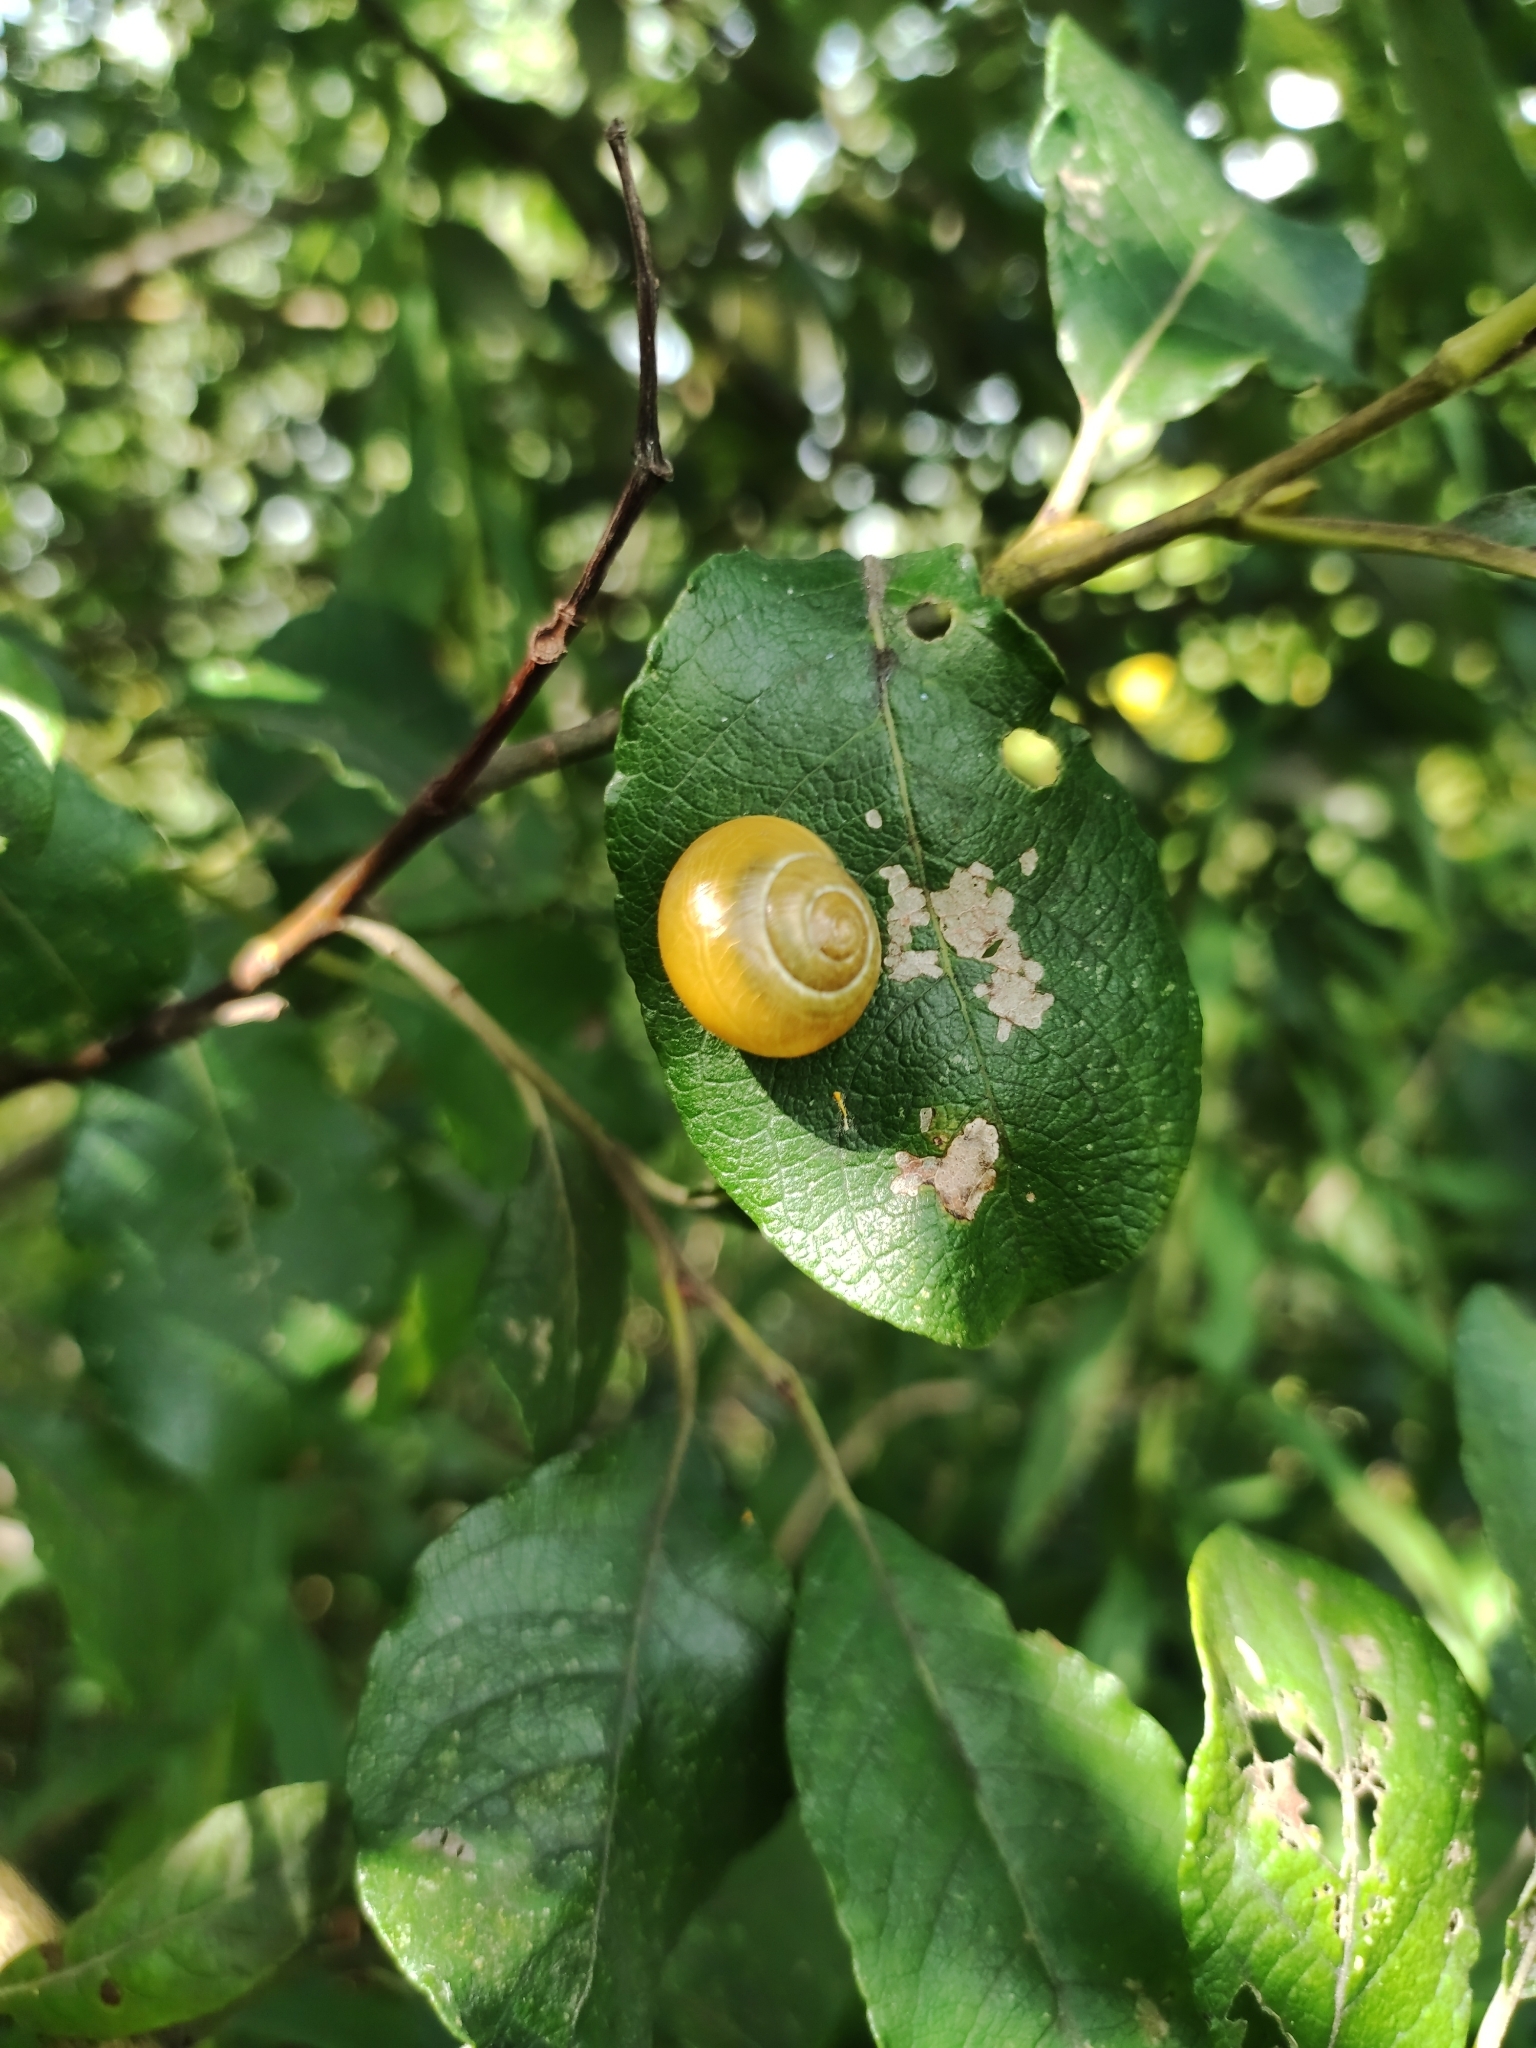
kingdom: Animalia
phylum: Mollusca
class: Gastropoda
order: Stylommatophora
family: Helicidae
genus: Cepaea
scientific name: Cepaea hortensis
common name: White-lip gardensnail
